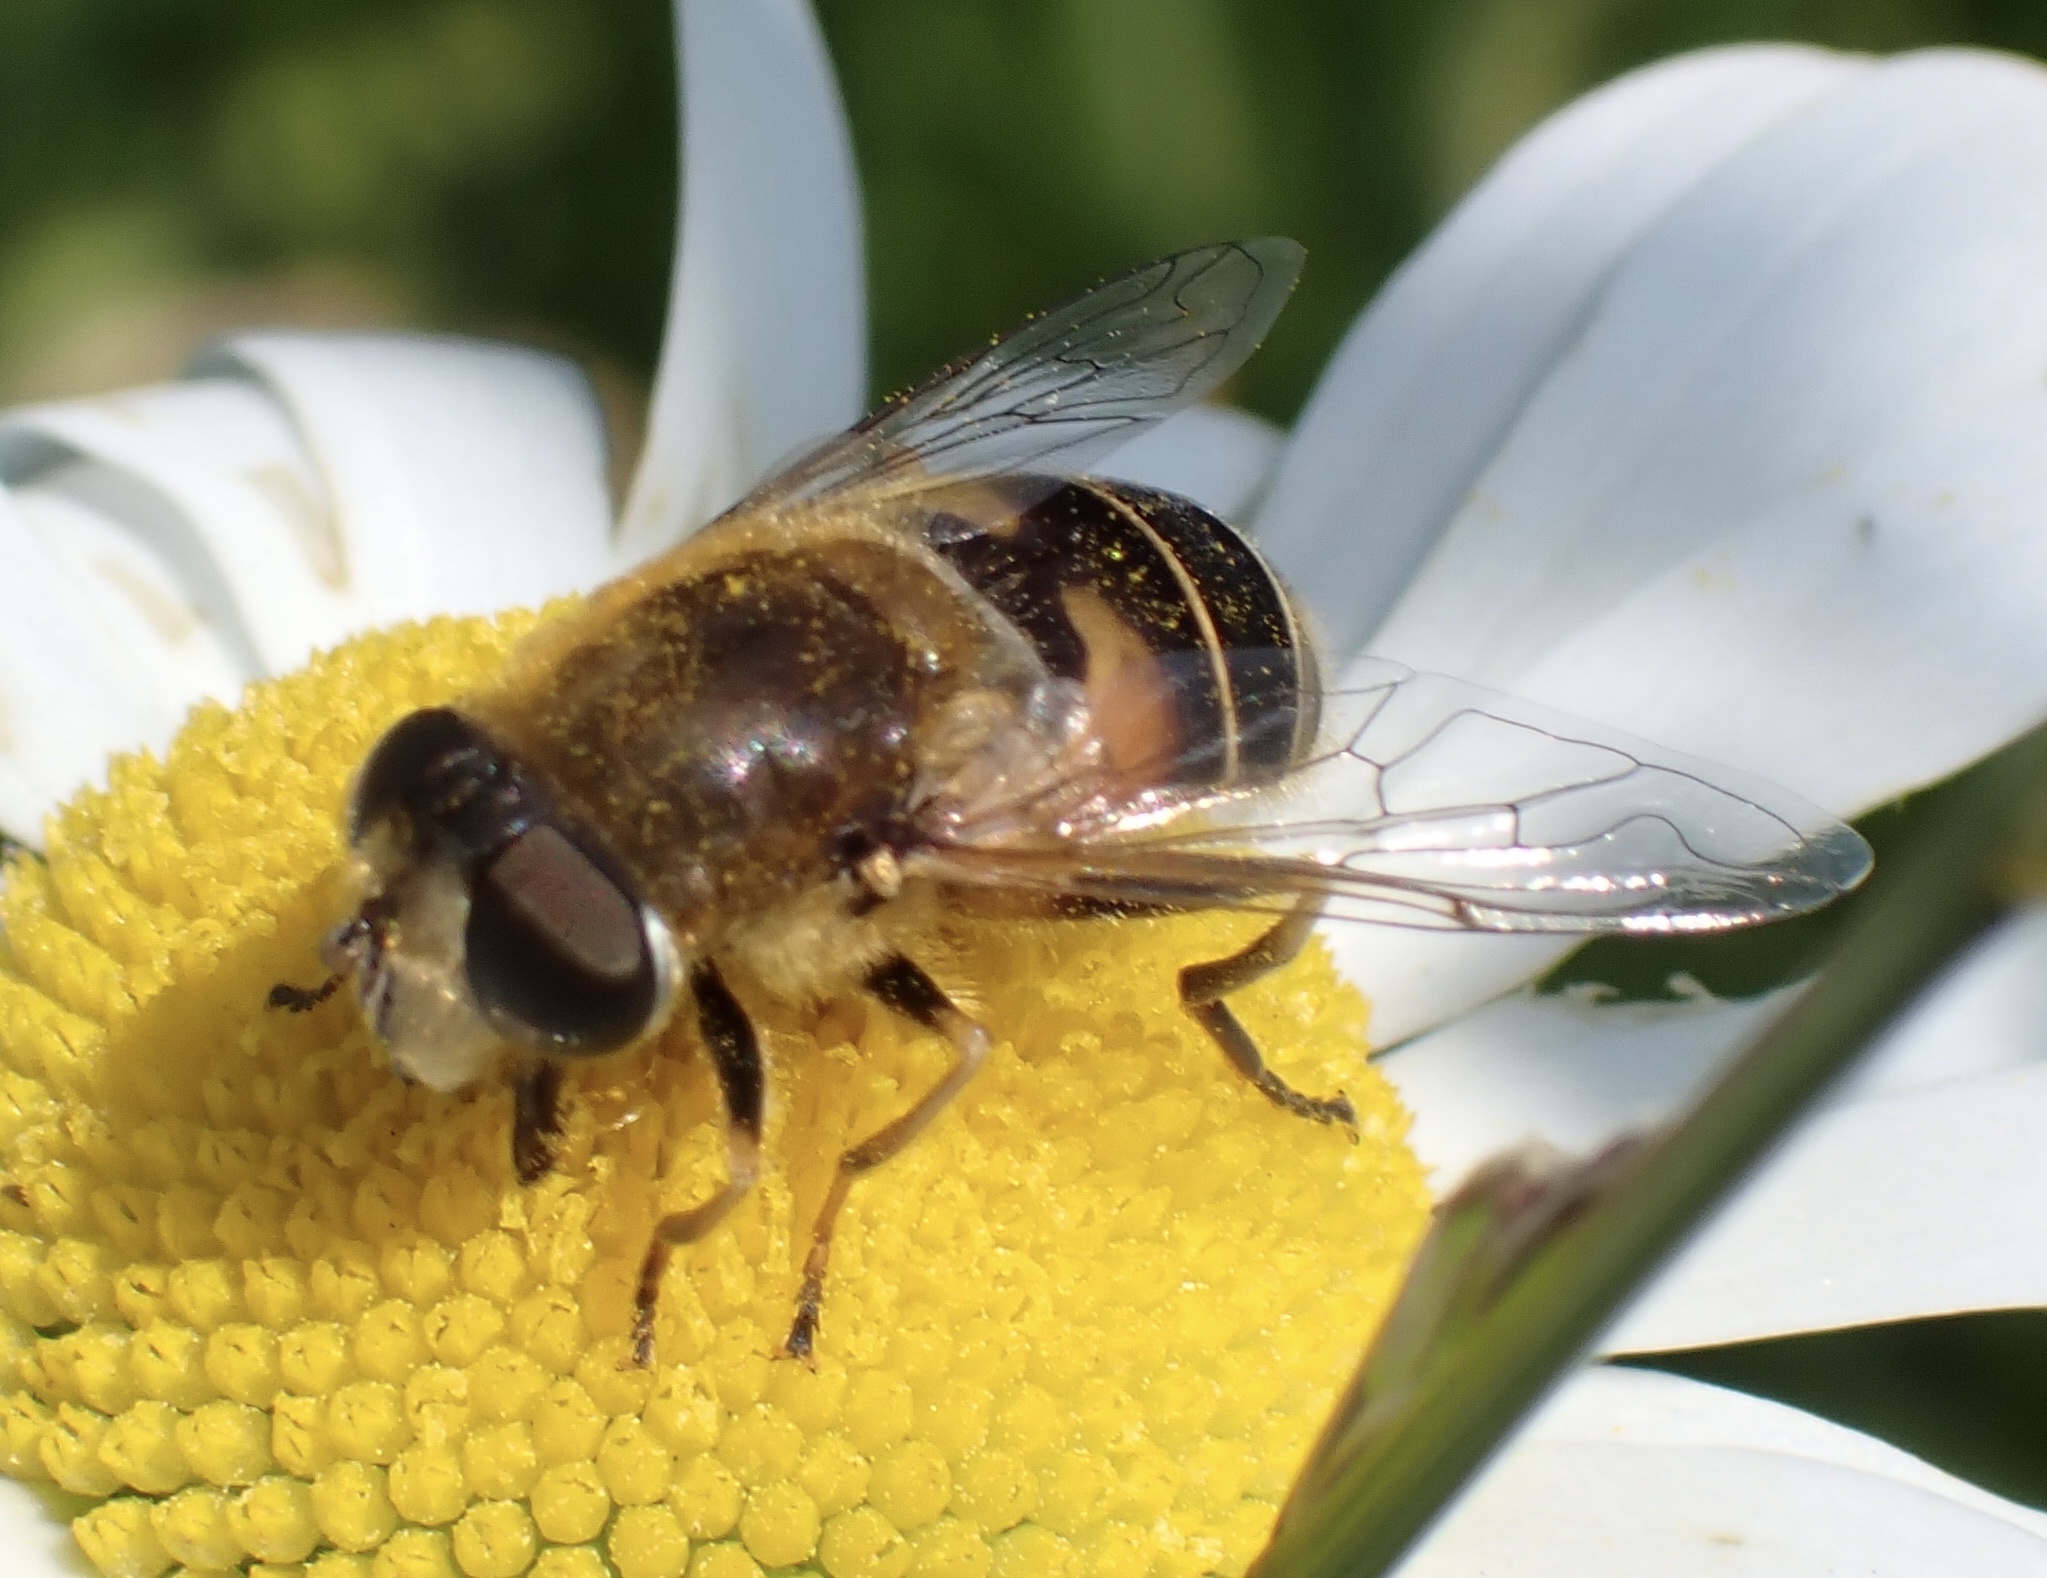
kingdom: Animalia
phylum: Arthropoda
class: Insecta
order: Diptera
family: Syrphidae
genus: Eristalis
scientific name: Eristalis nemorum
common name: Orange-spined drone fly
